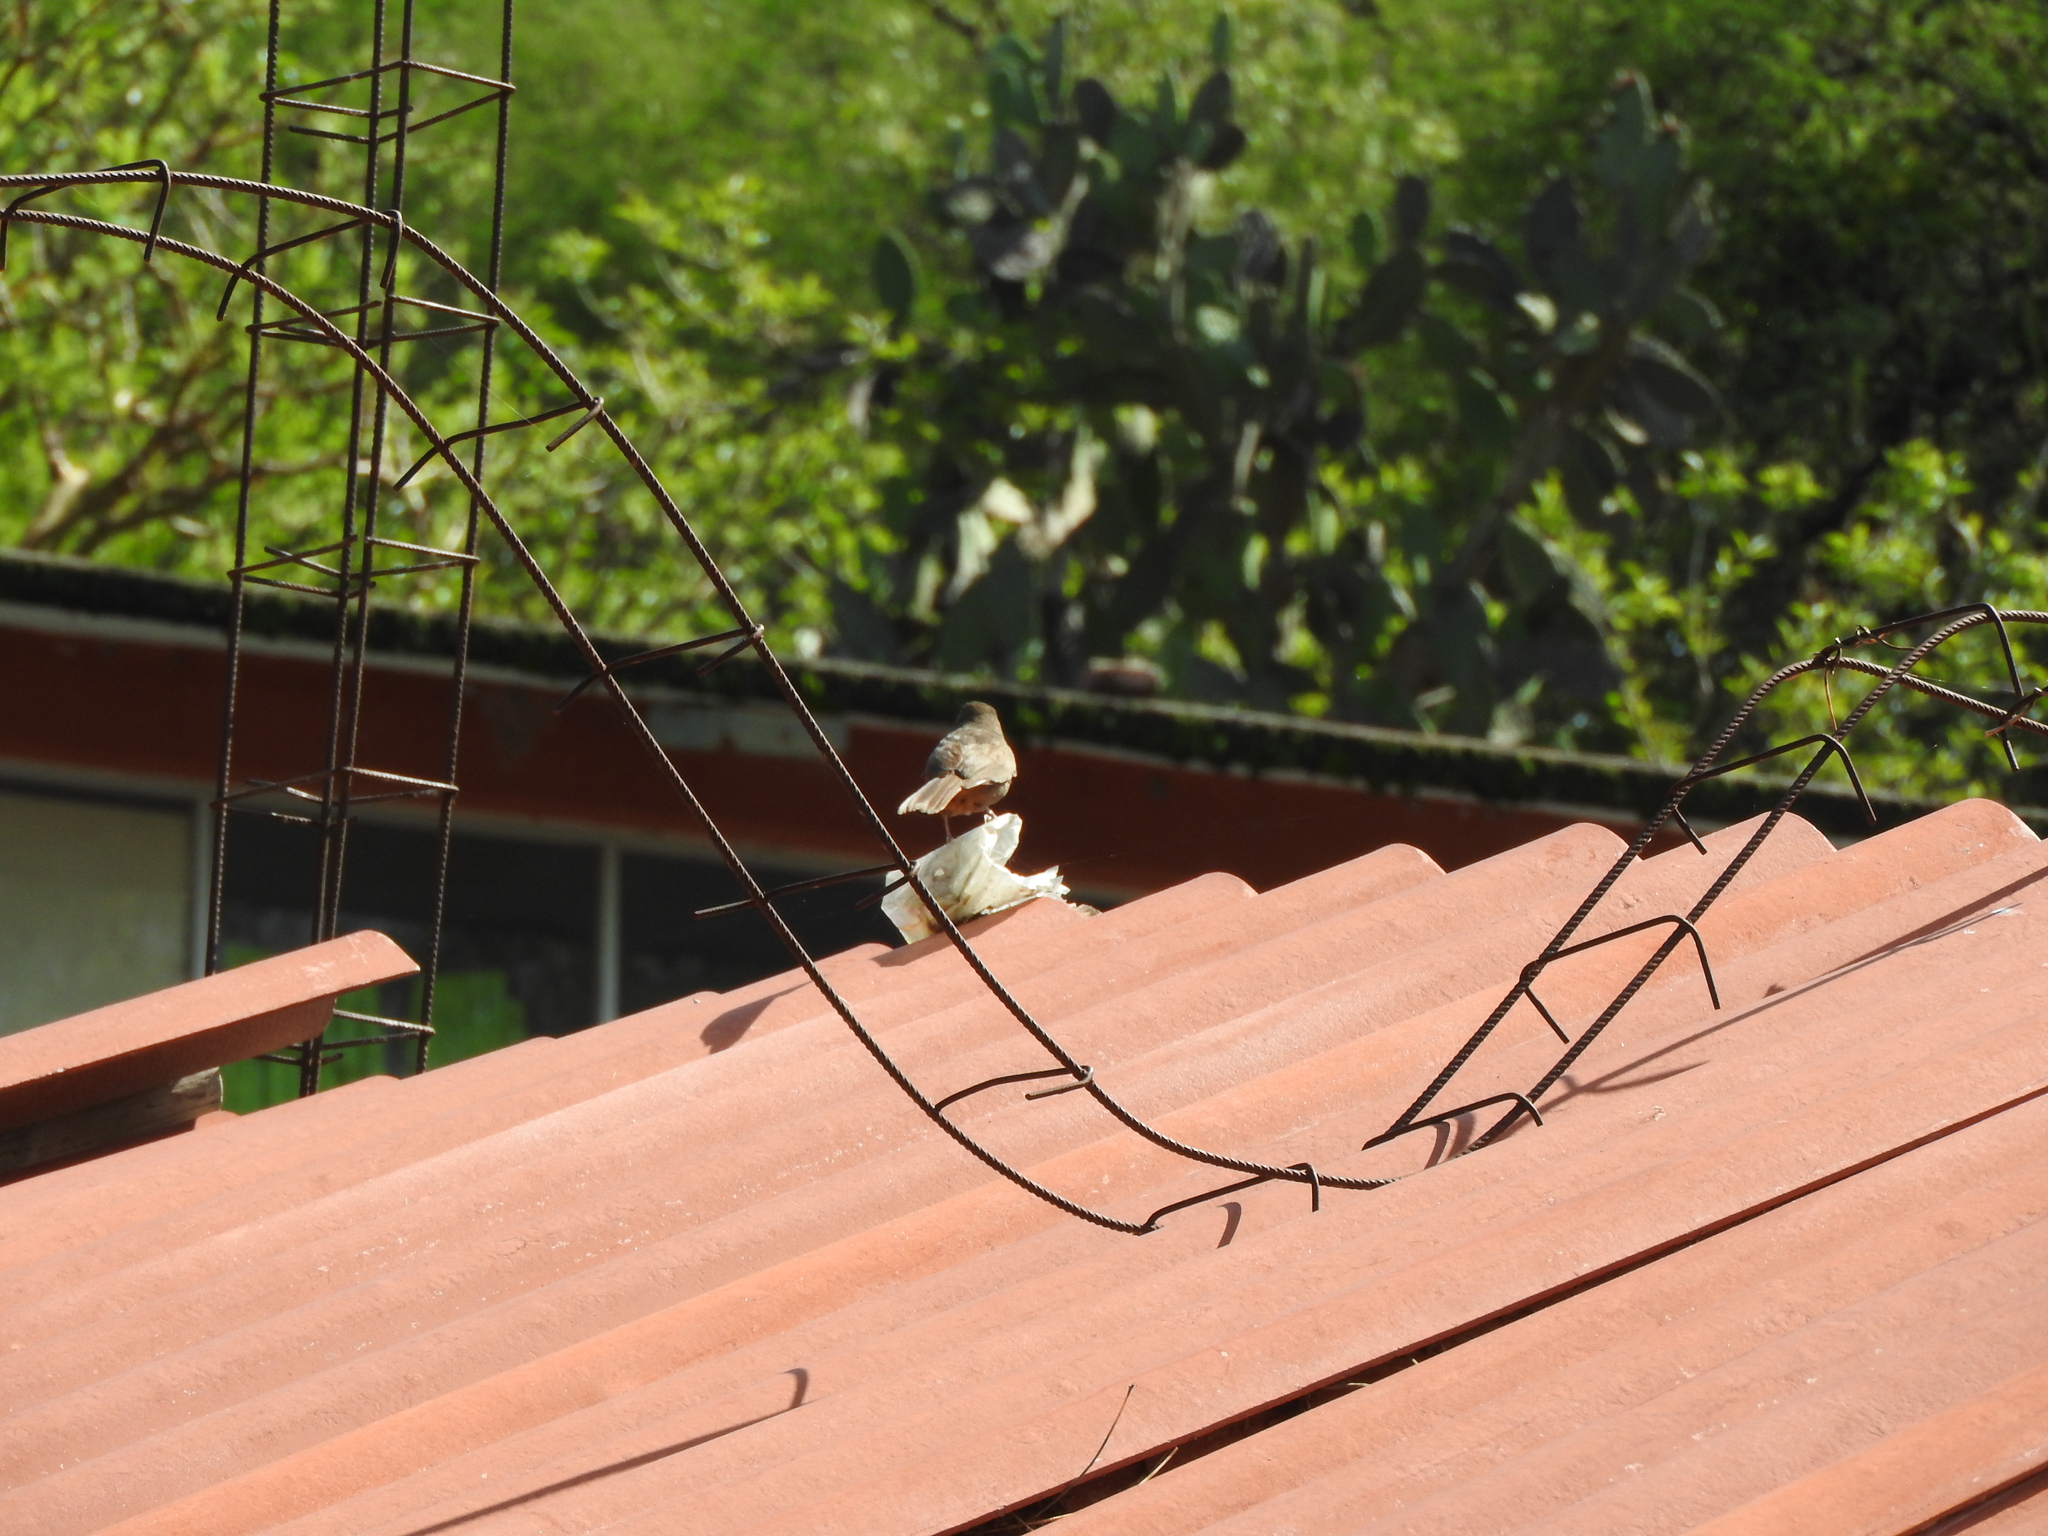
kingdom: Animalia
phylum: Chordata
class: Aves
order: Passeriformes
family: Passerellidae
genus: Melozone
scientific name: Melozone fusca
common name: Canyon towhee
